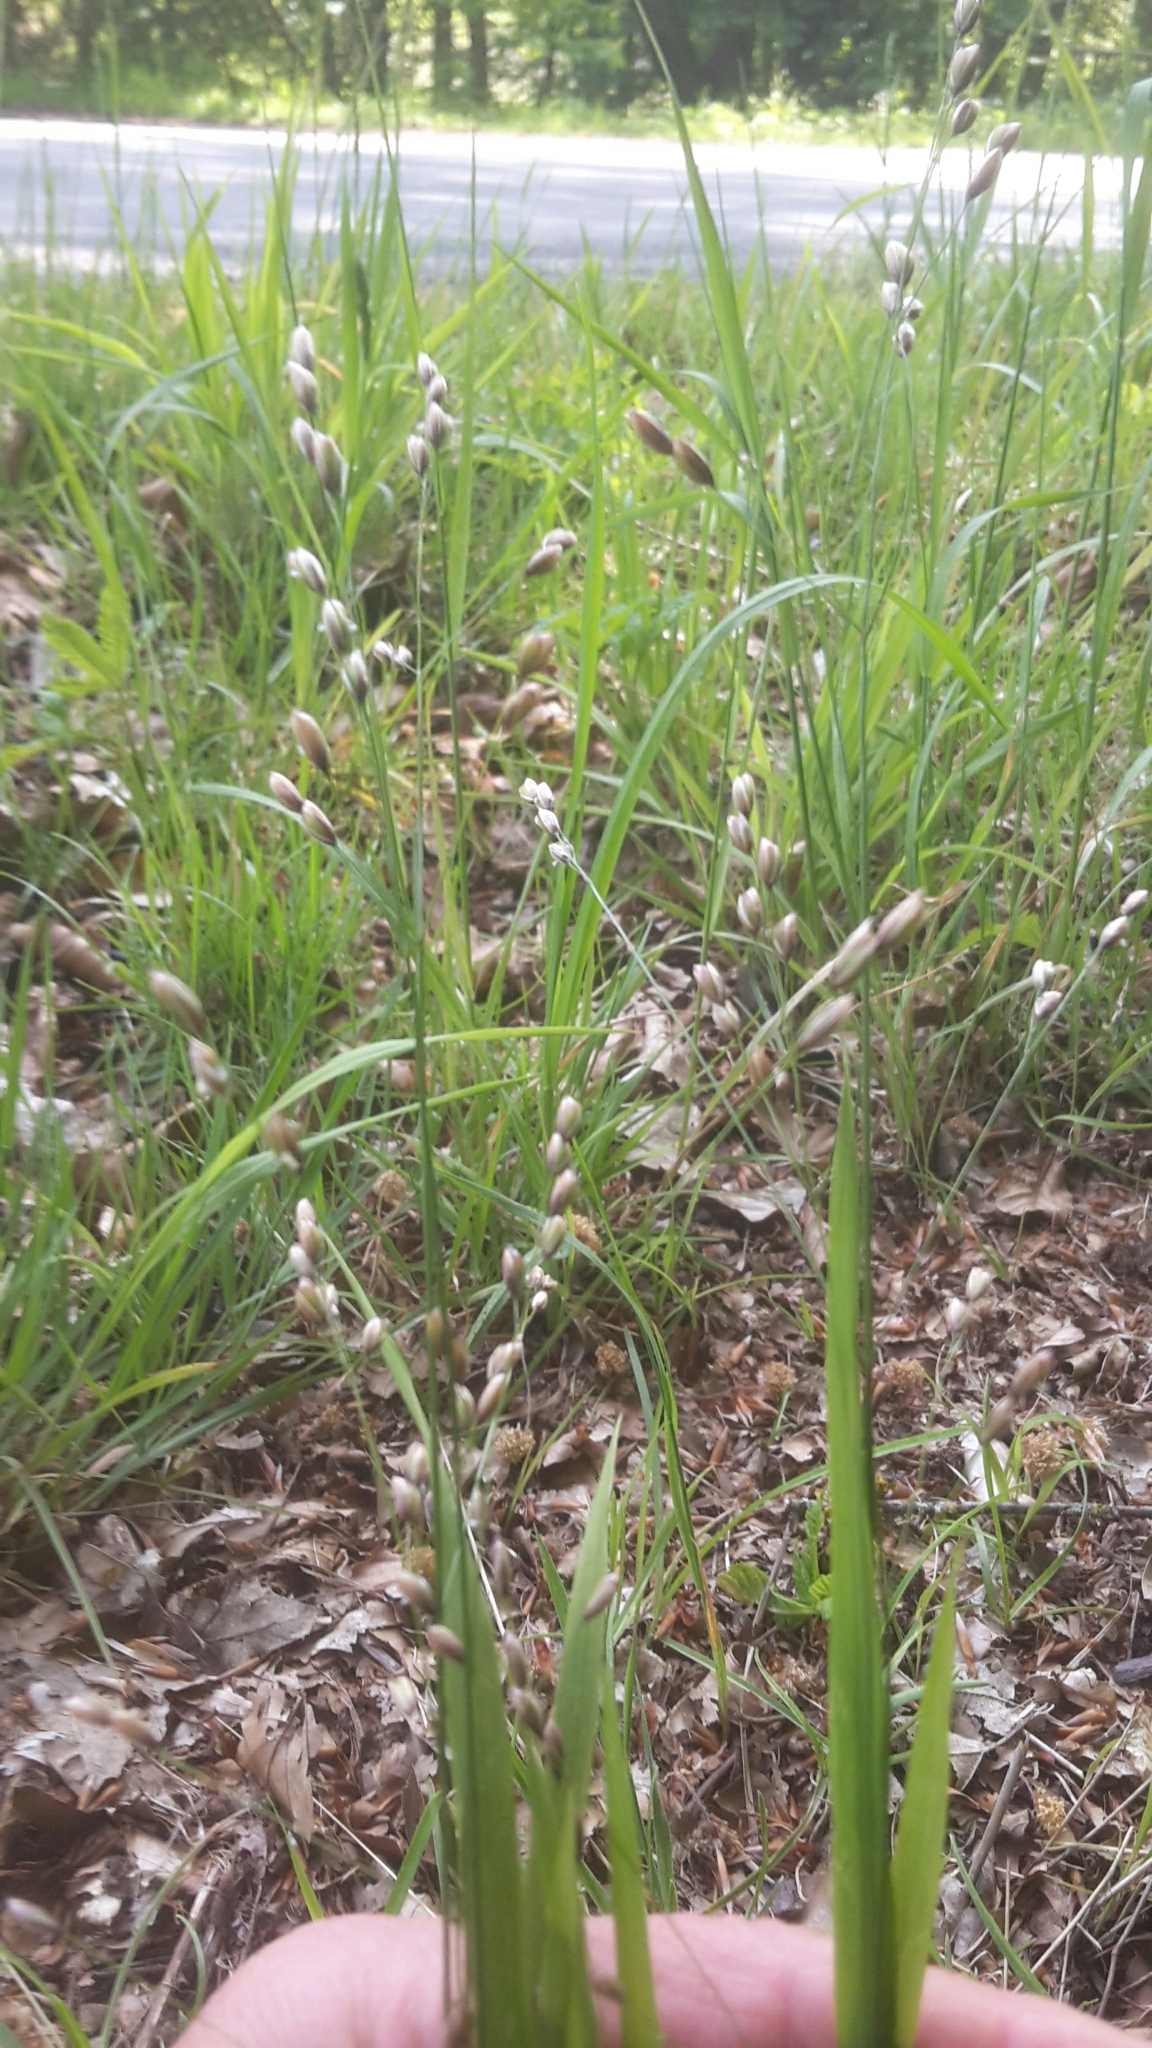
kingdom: Plantae
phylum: Tracheophyta
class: Liliopsida
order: Poales
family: Poaceae
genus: Melica
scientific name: Melica uniflora
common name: Wood melick
